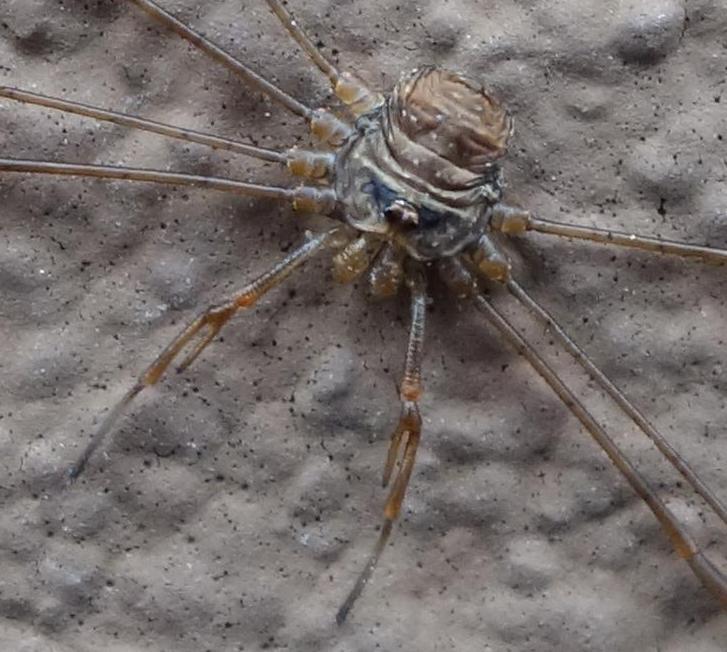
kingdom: Animalia
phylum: Arthropoda
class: Arachnida
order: Opiliones
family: Phalangiidae
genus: Dicranopalpus
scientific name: Dicranopalpus ramosus
